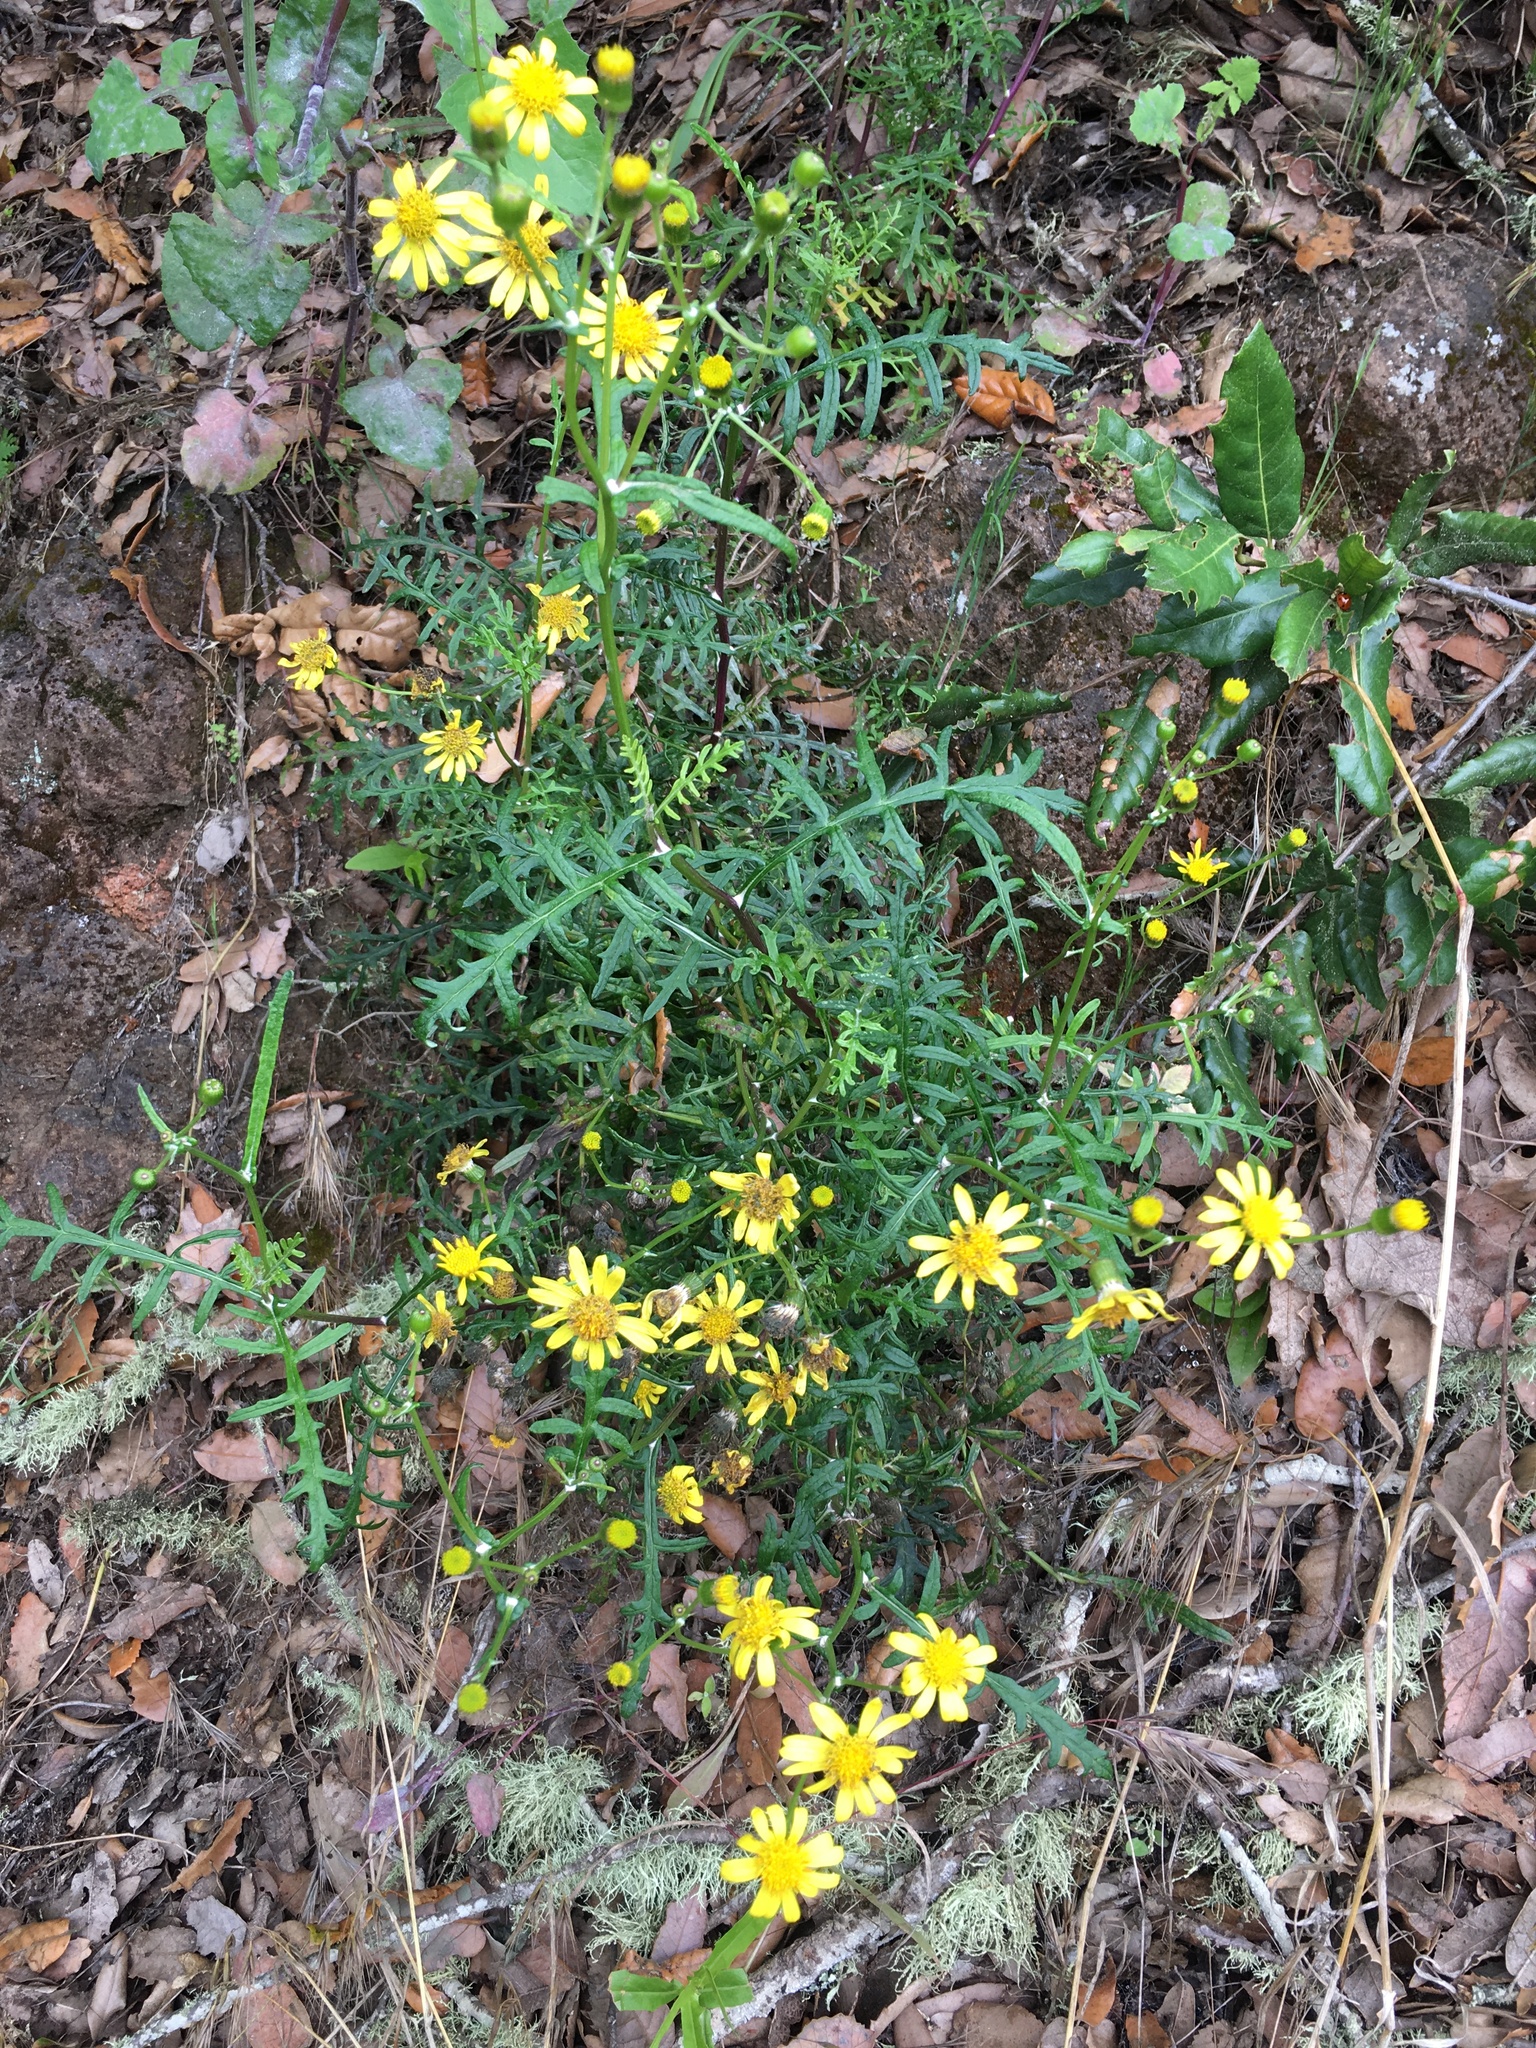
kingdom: Plantae
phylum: Tracheophyta
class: Magnoliopsida
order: Asterales
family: Asteraceae
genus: Senecio
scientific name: Senecio lyonii
